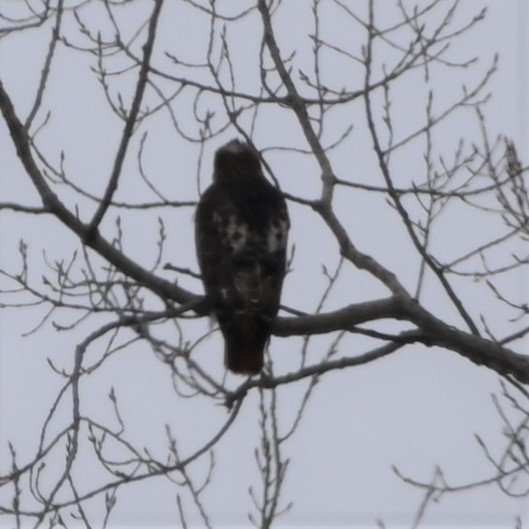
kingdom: Animalia
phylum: Chordata
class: Aves
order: Accipitriformes
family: Accipitridae
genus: Buteo
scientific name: Buteo jamaicensis
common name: Red-tailed hawk
